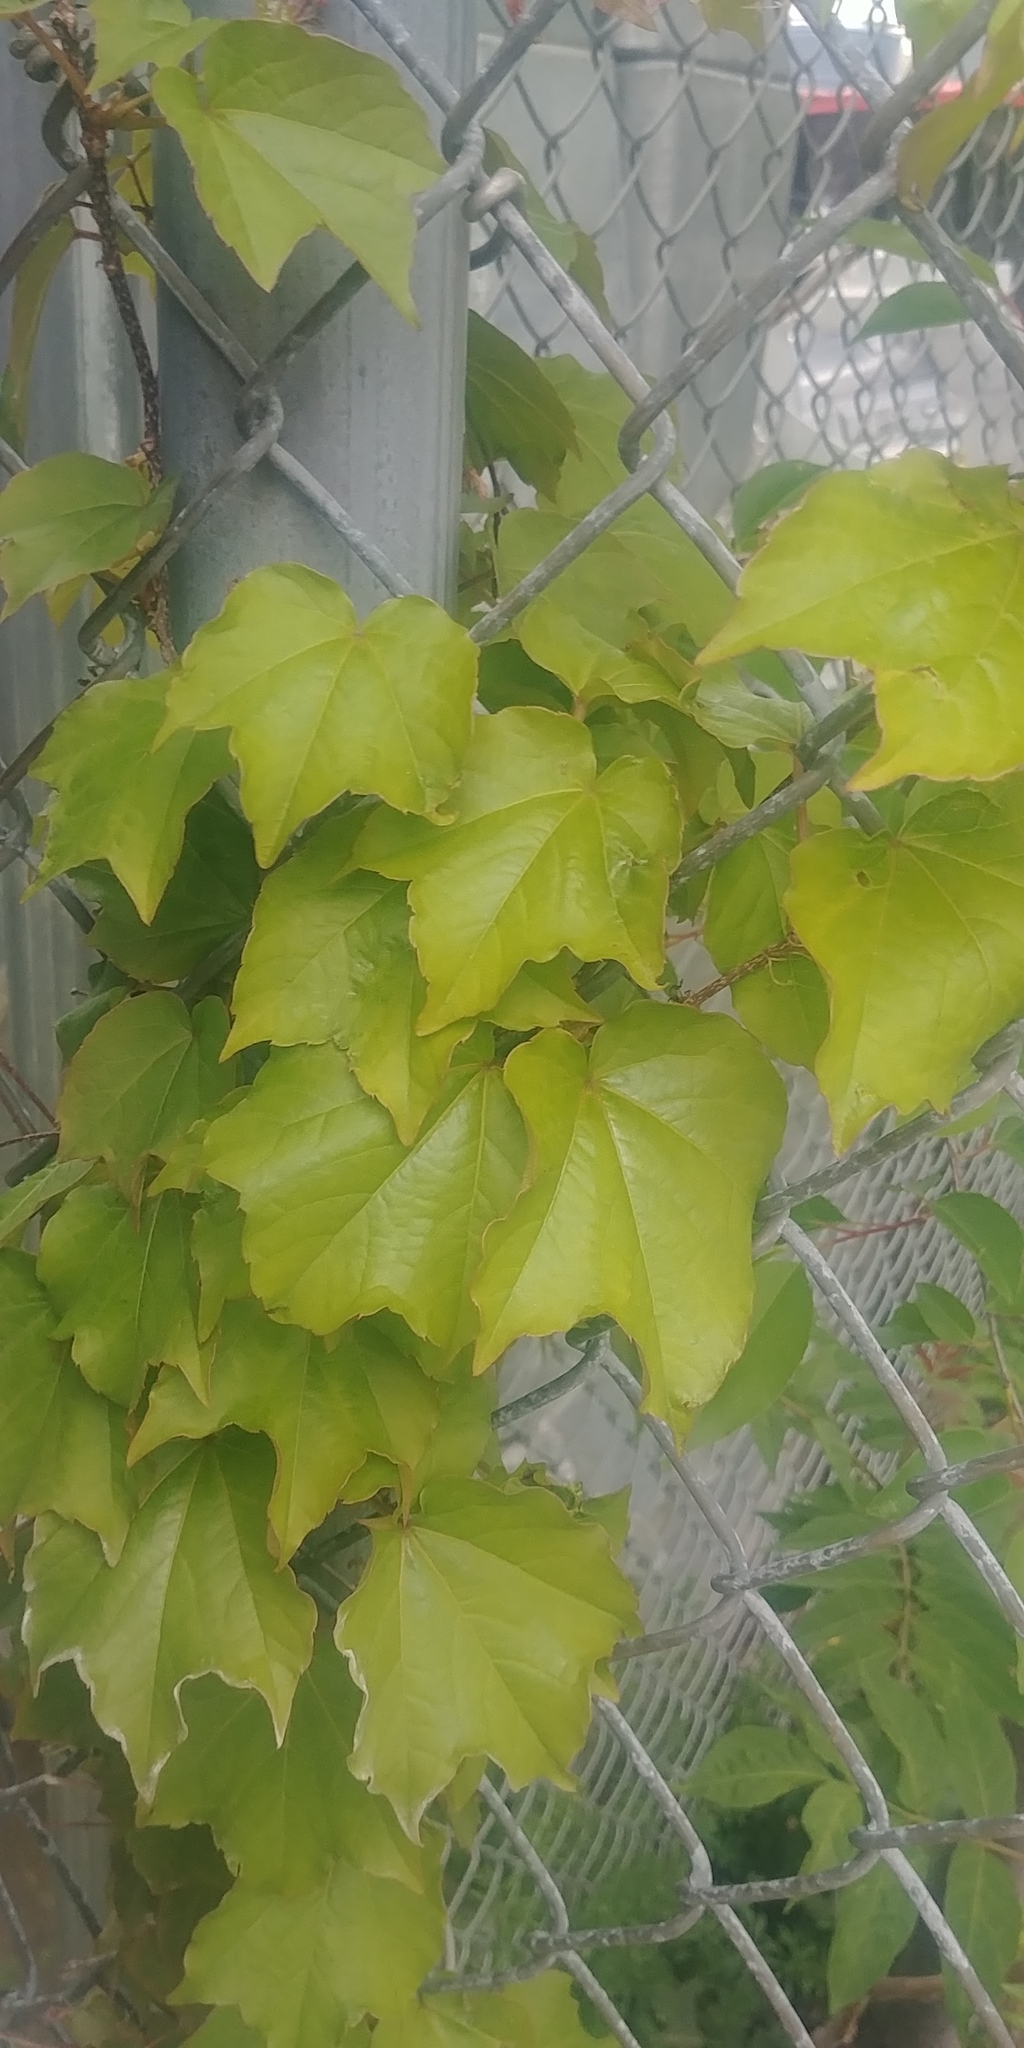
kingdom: Plantae
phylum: Tracheophyta
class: Magnoliopsida
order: Vitales
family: Vitaceae
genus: Parthenocissus
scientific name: Parthenocissus tricuspidata
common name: Boston ivy
